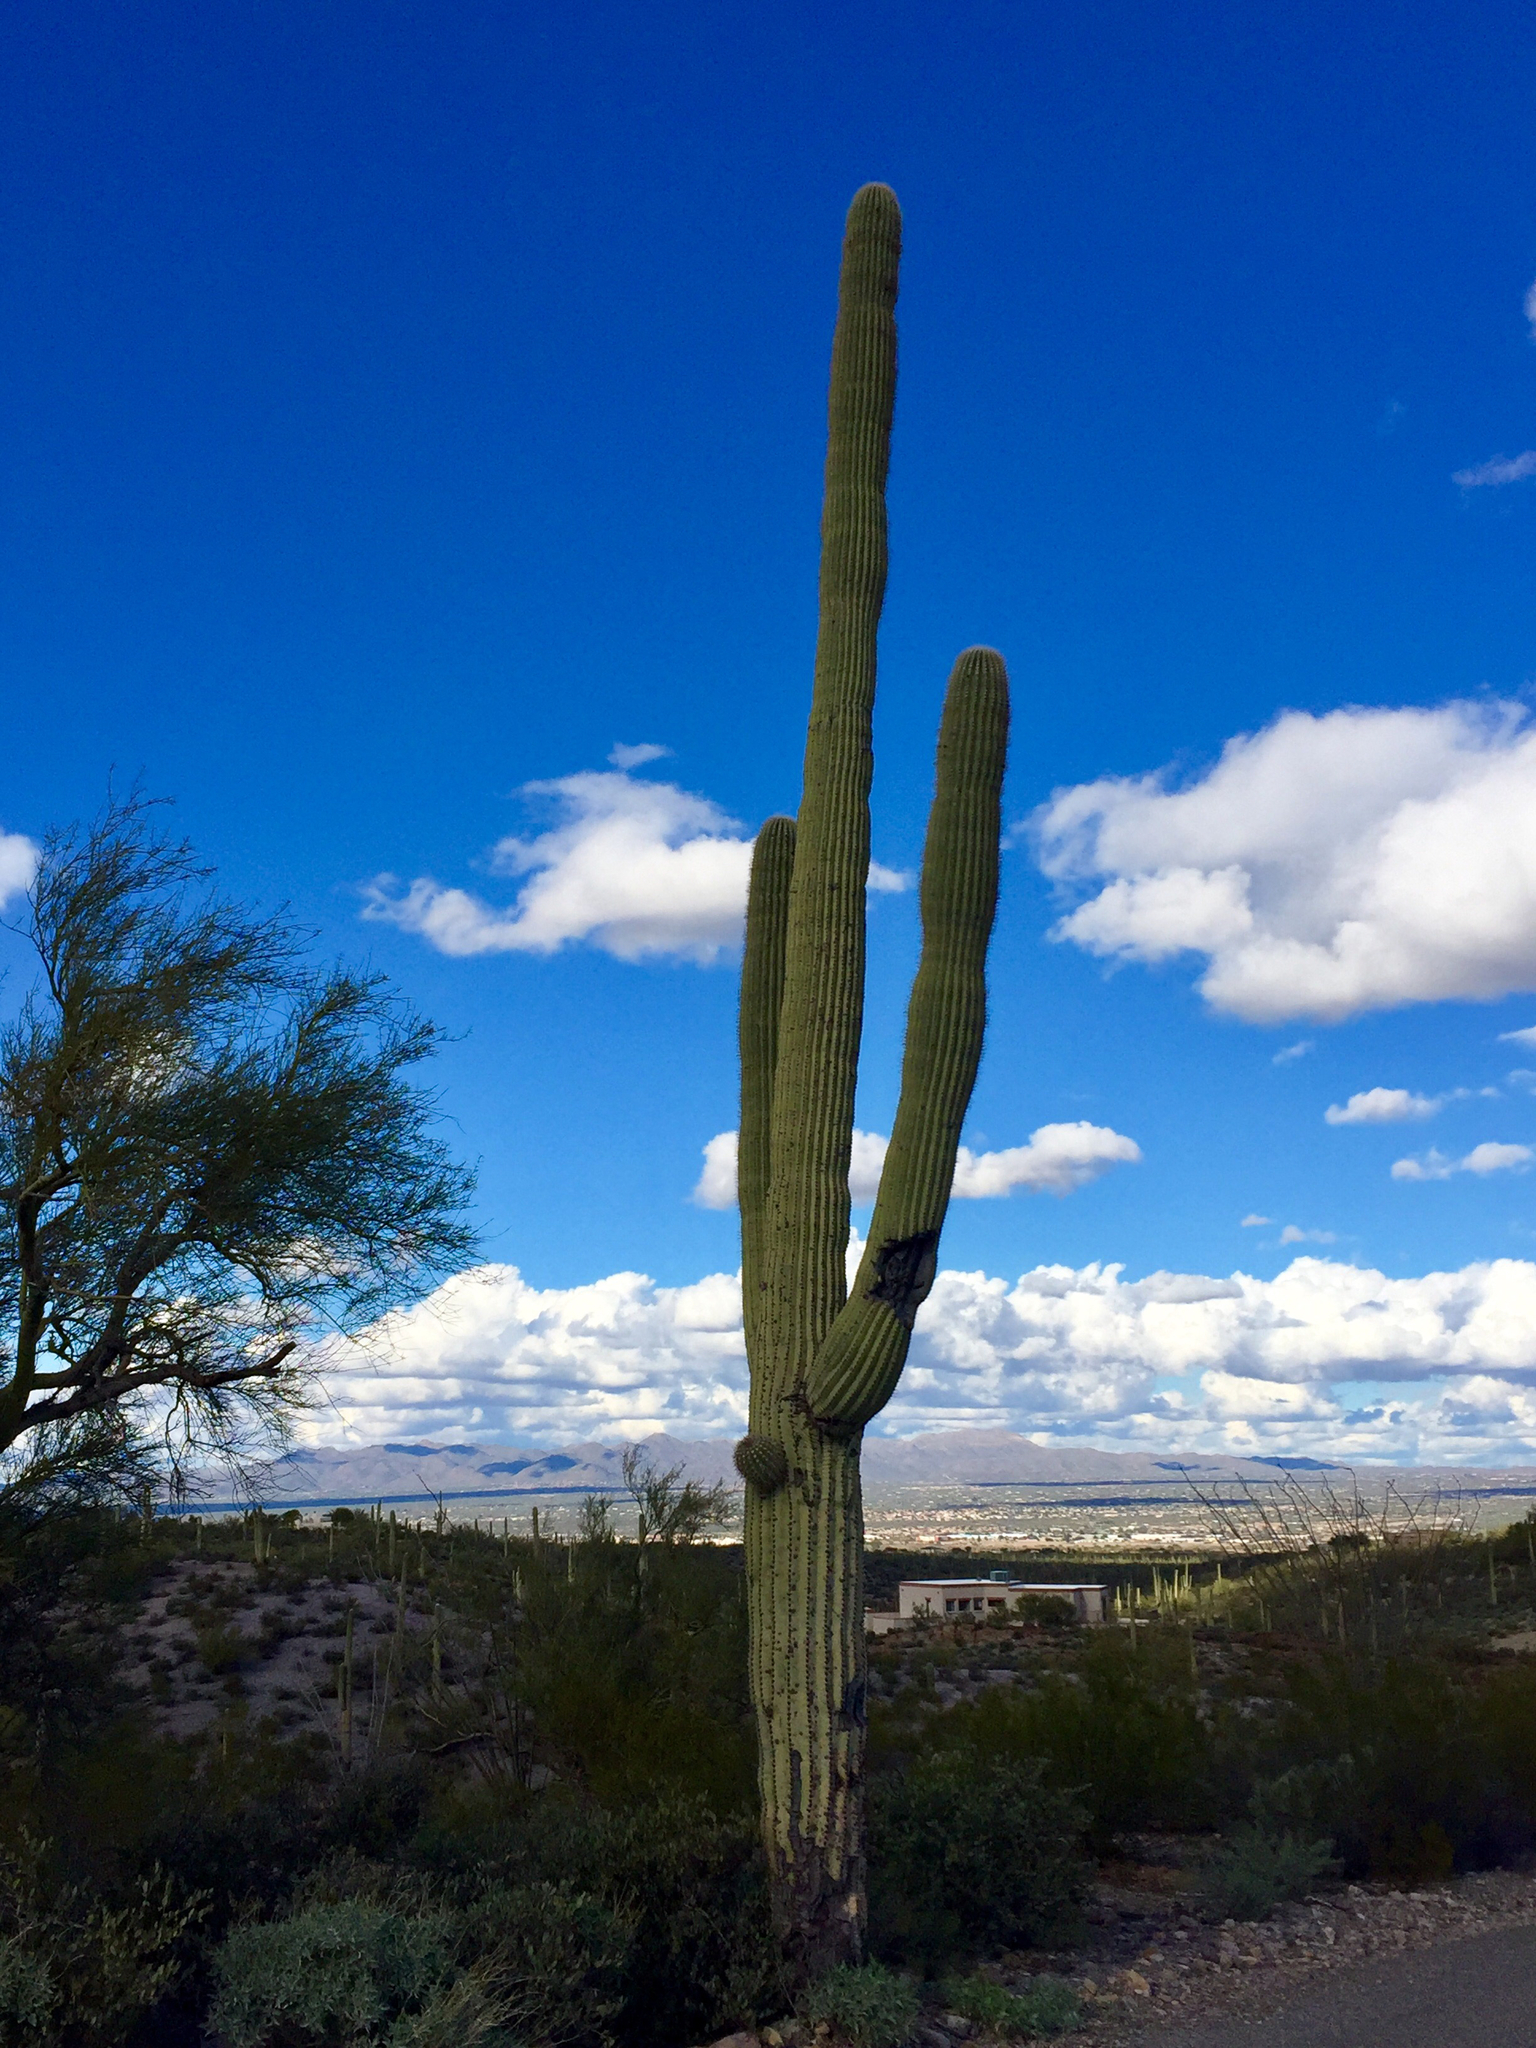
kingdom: Plantae
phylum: Tracheophyta
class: Magnoliopsida
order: Caryophyllales
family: Cactaceae
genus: Carnegiea
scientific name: Carnegiea gigantea
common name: Saguaro
